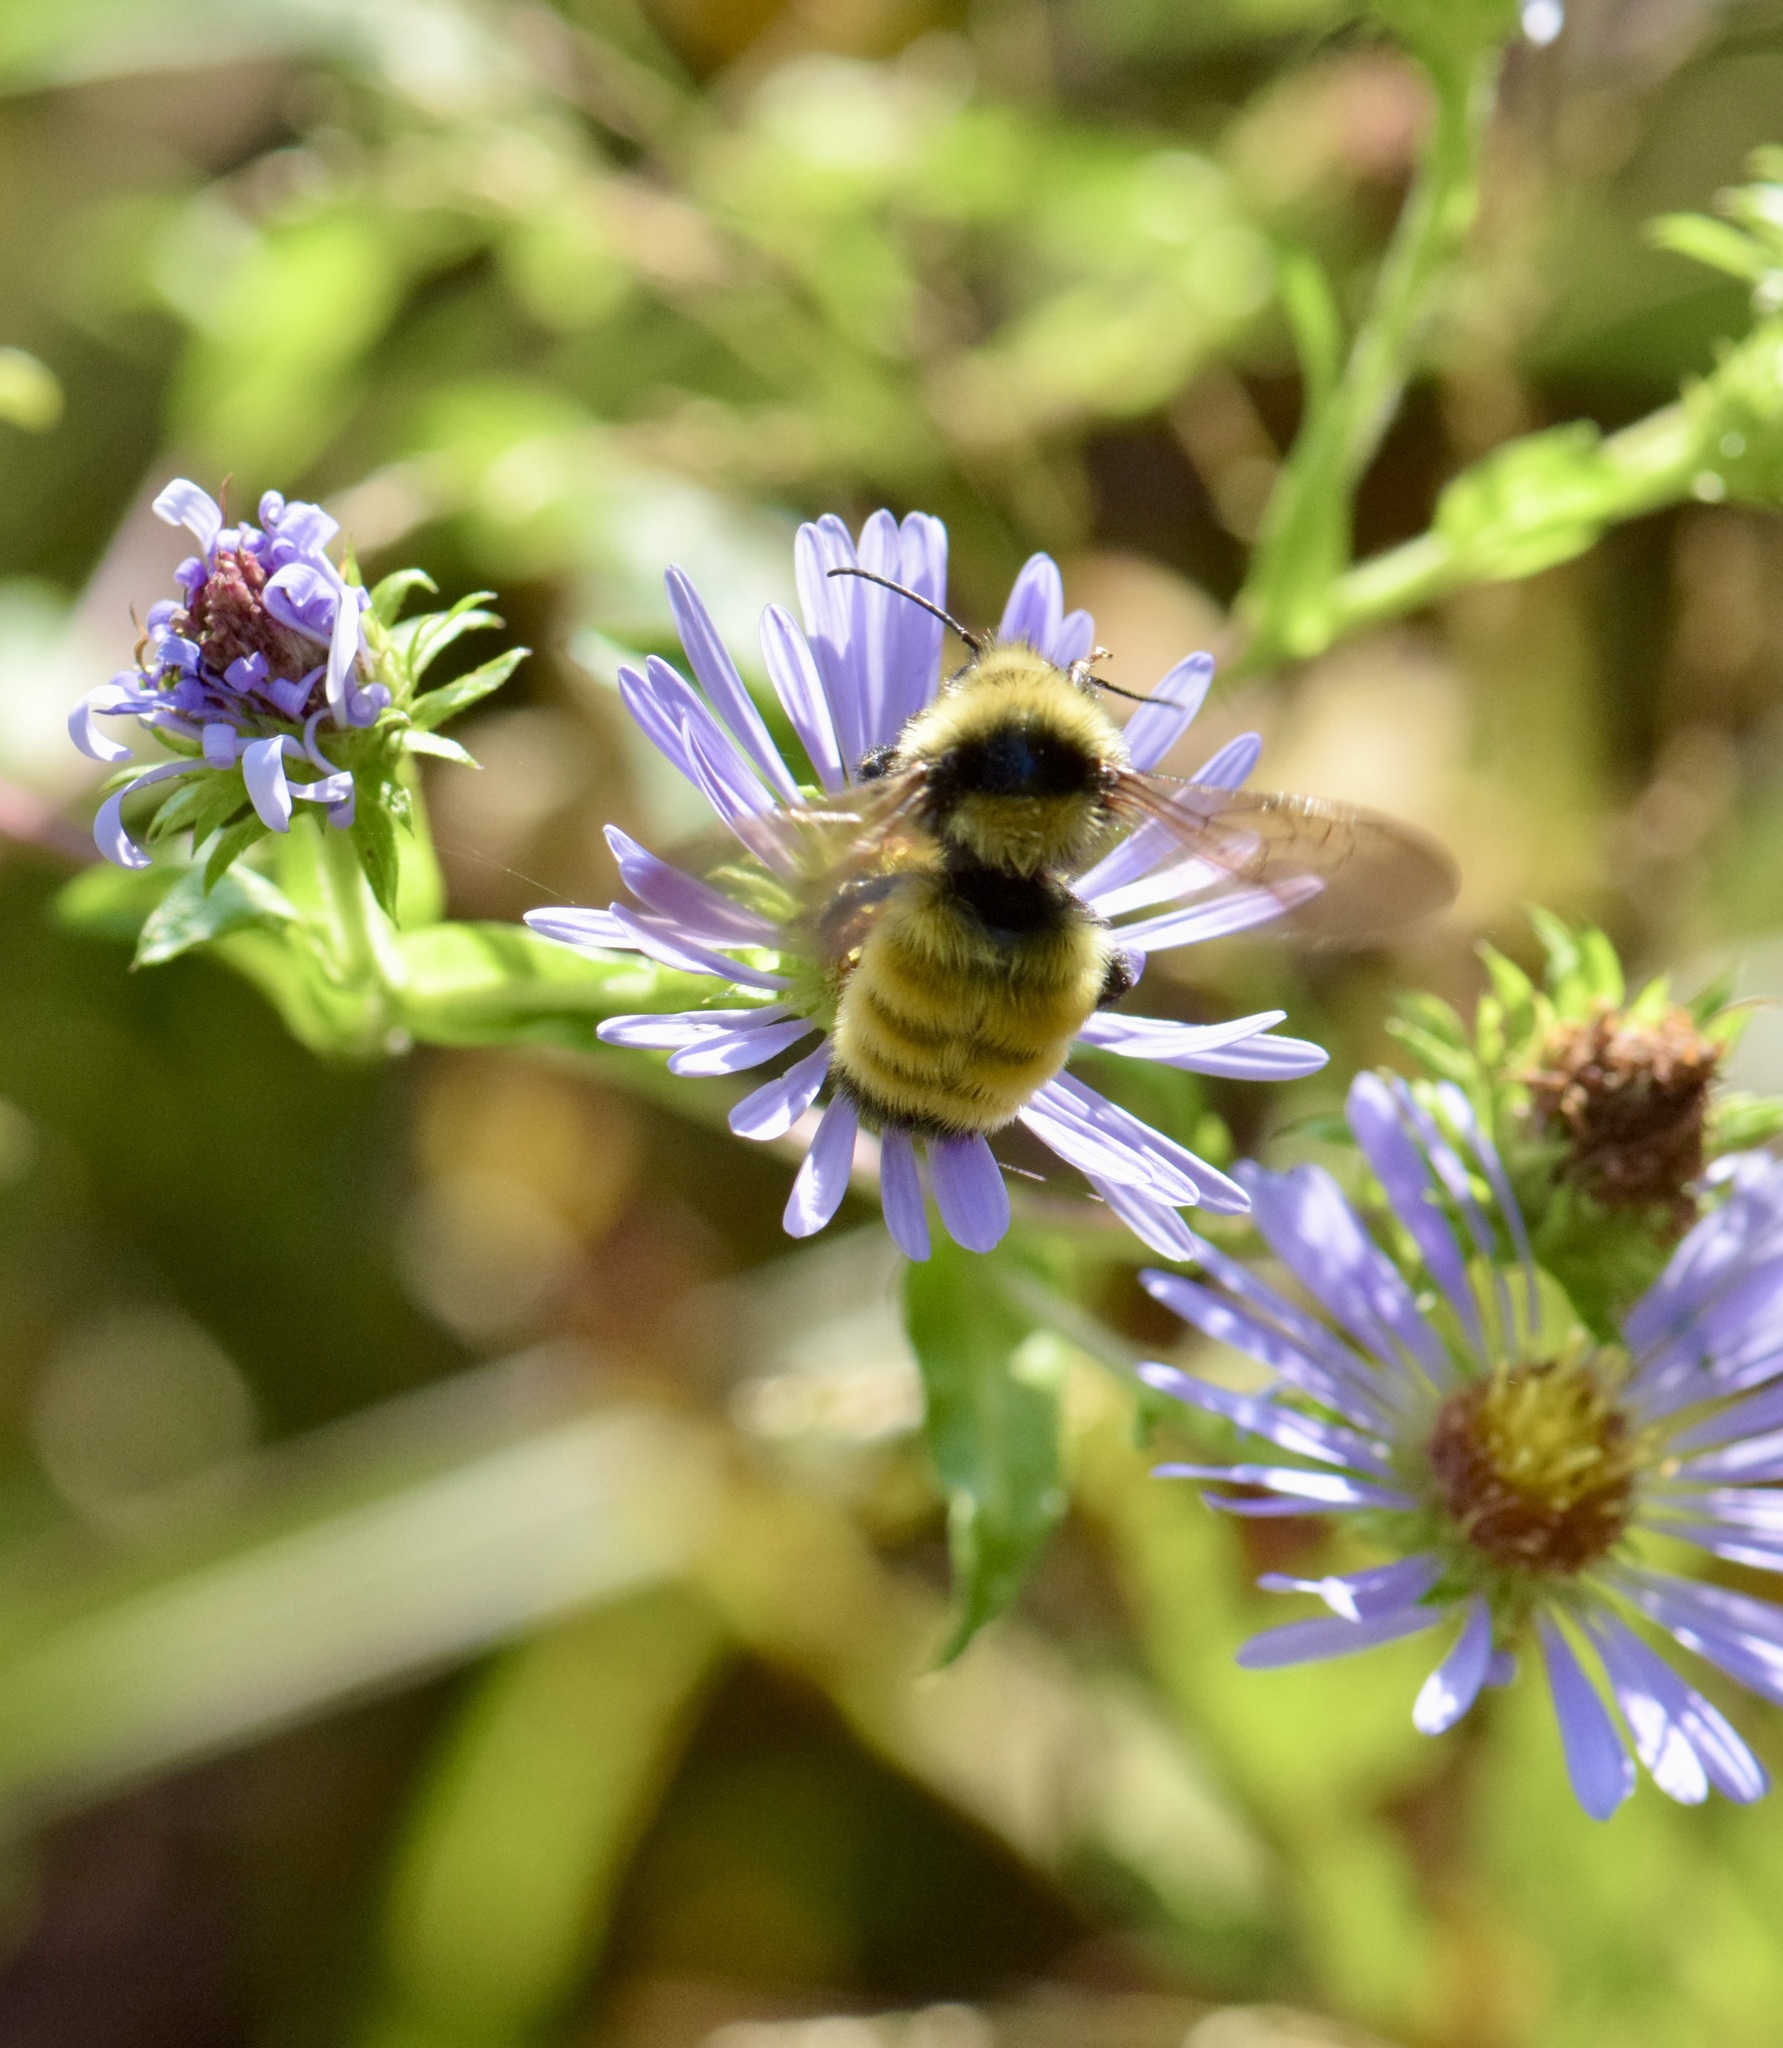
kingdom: Animalia
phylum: Arthropoda
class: Insecta
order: Hymenoptera
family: Apidae
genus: Bombus
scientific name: Bombus borealis
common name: Northern amber bumble bee
